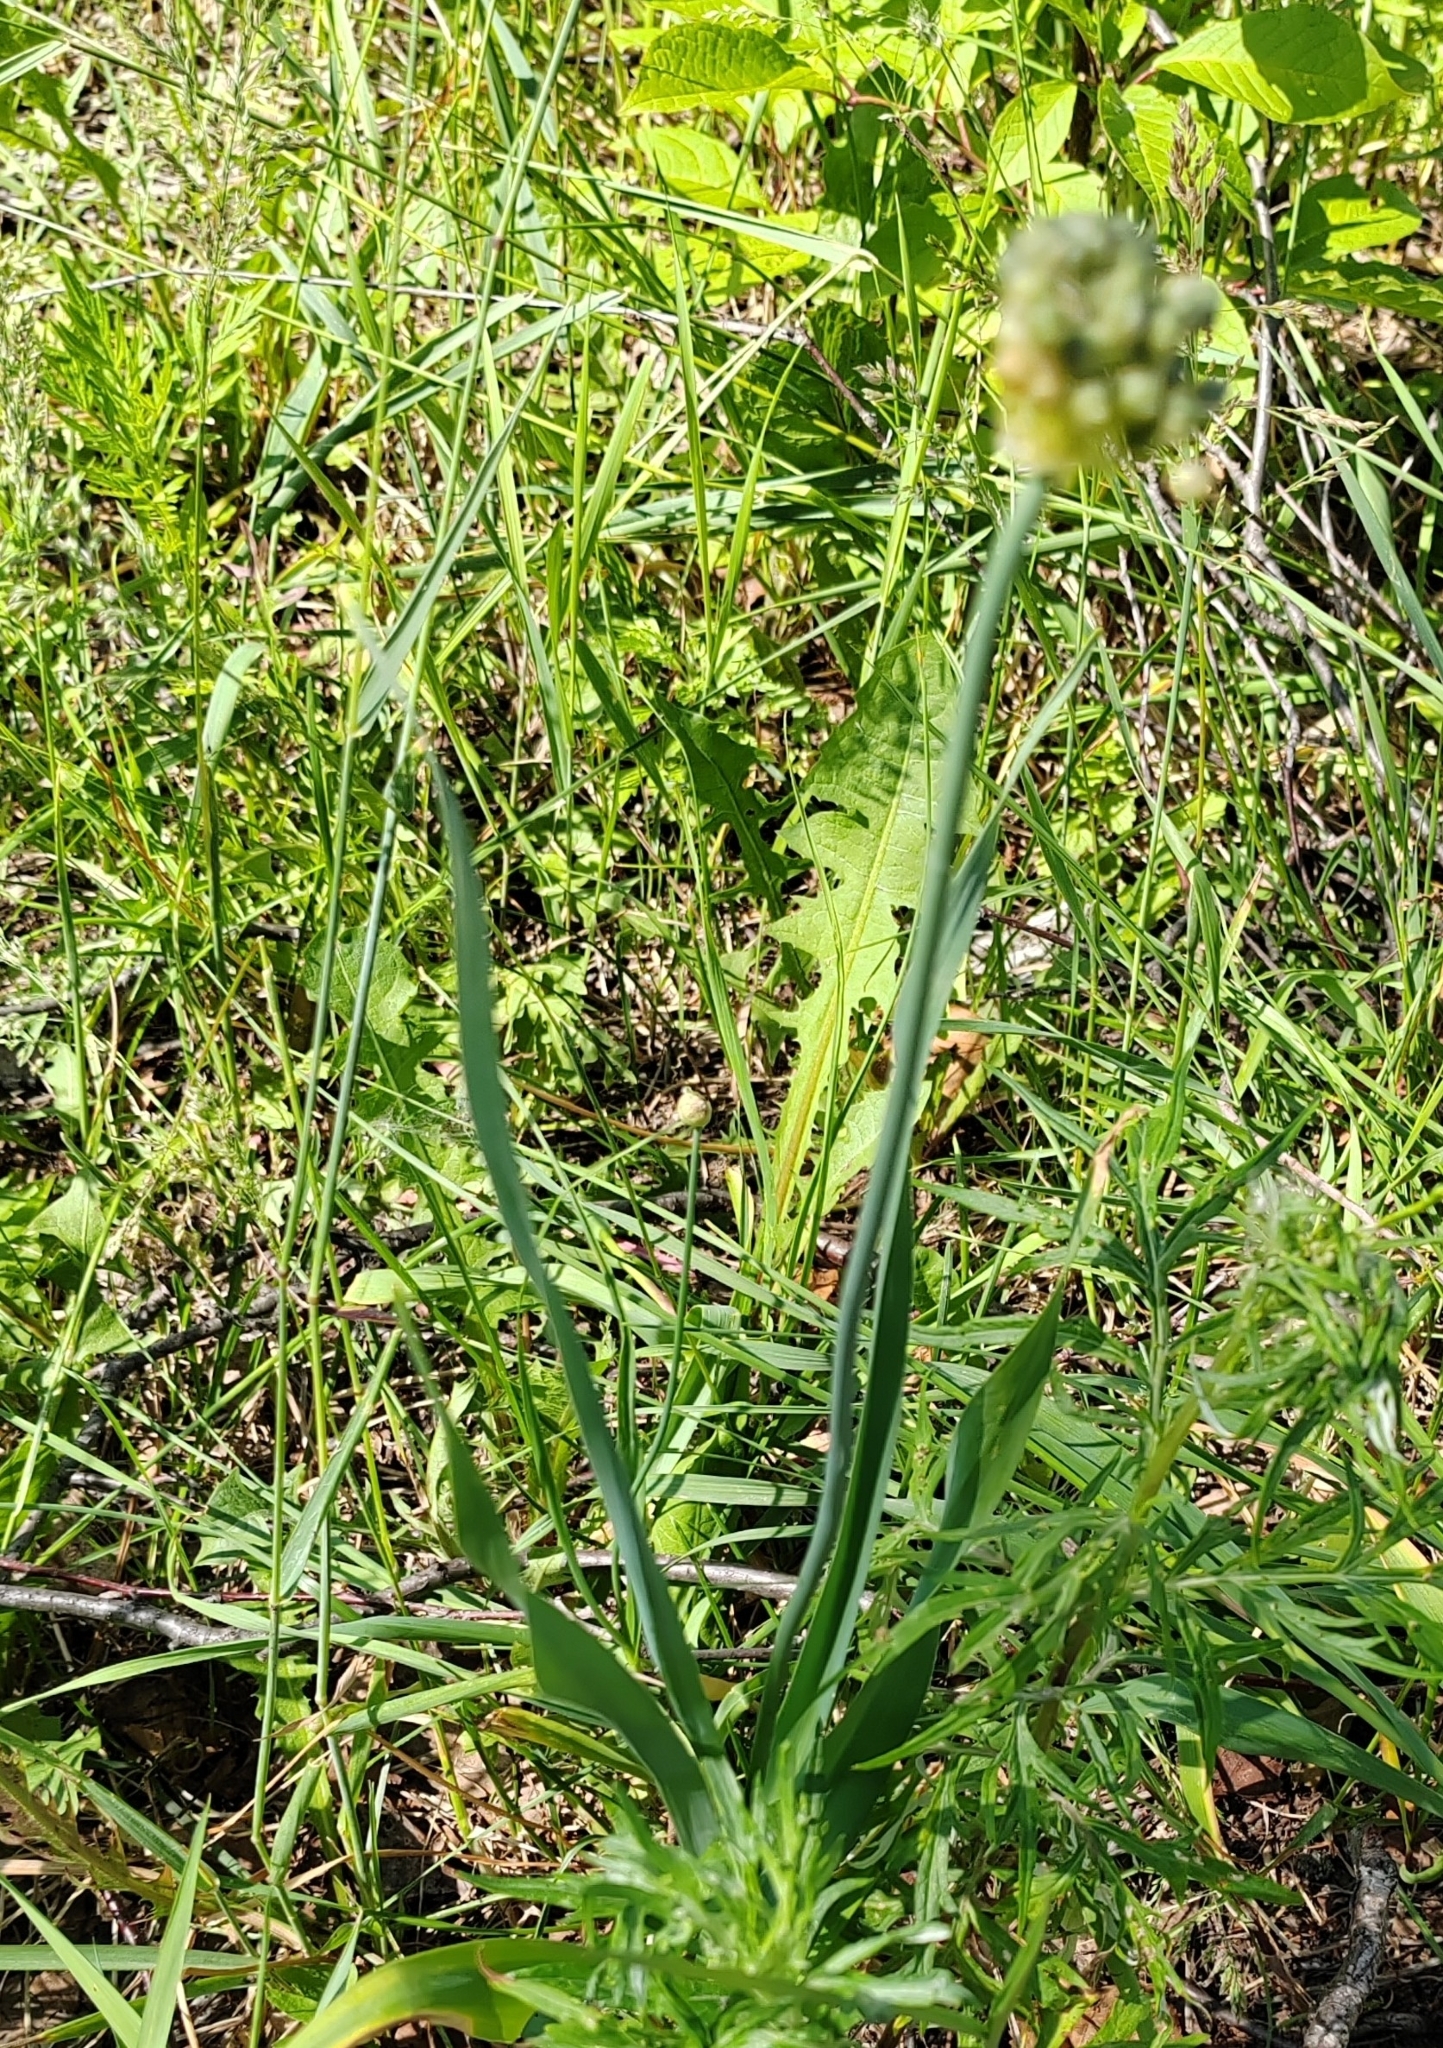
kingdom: Plantae
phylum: Tracheophyta
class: Liliopsida
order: Asparagales
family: Amaryllidaceae
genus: Allium
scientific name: Allium obliquum
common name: Oblique onion
